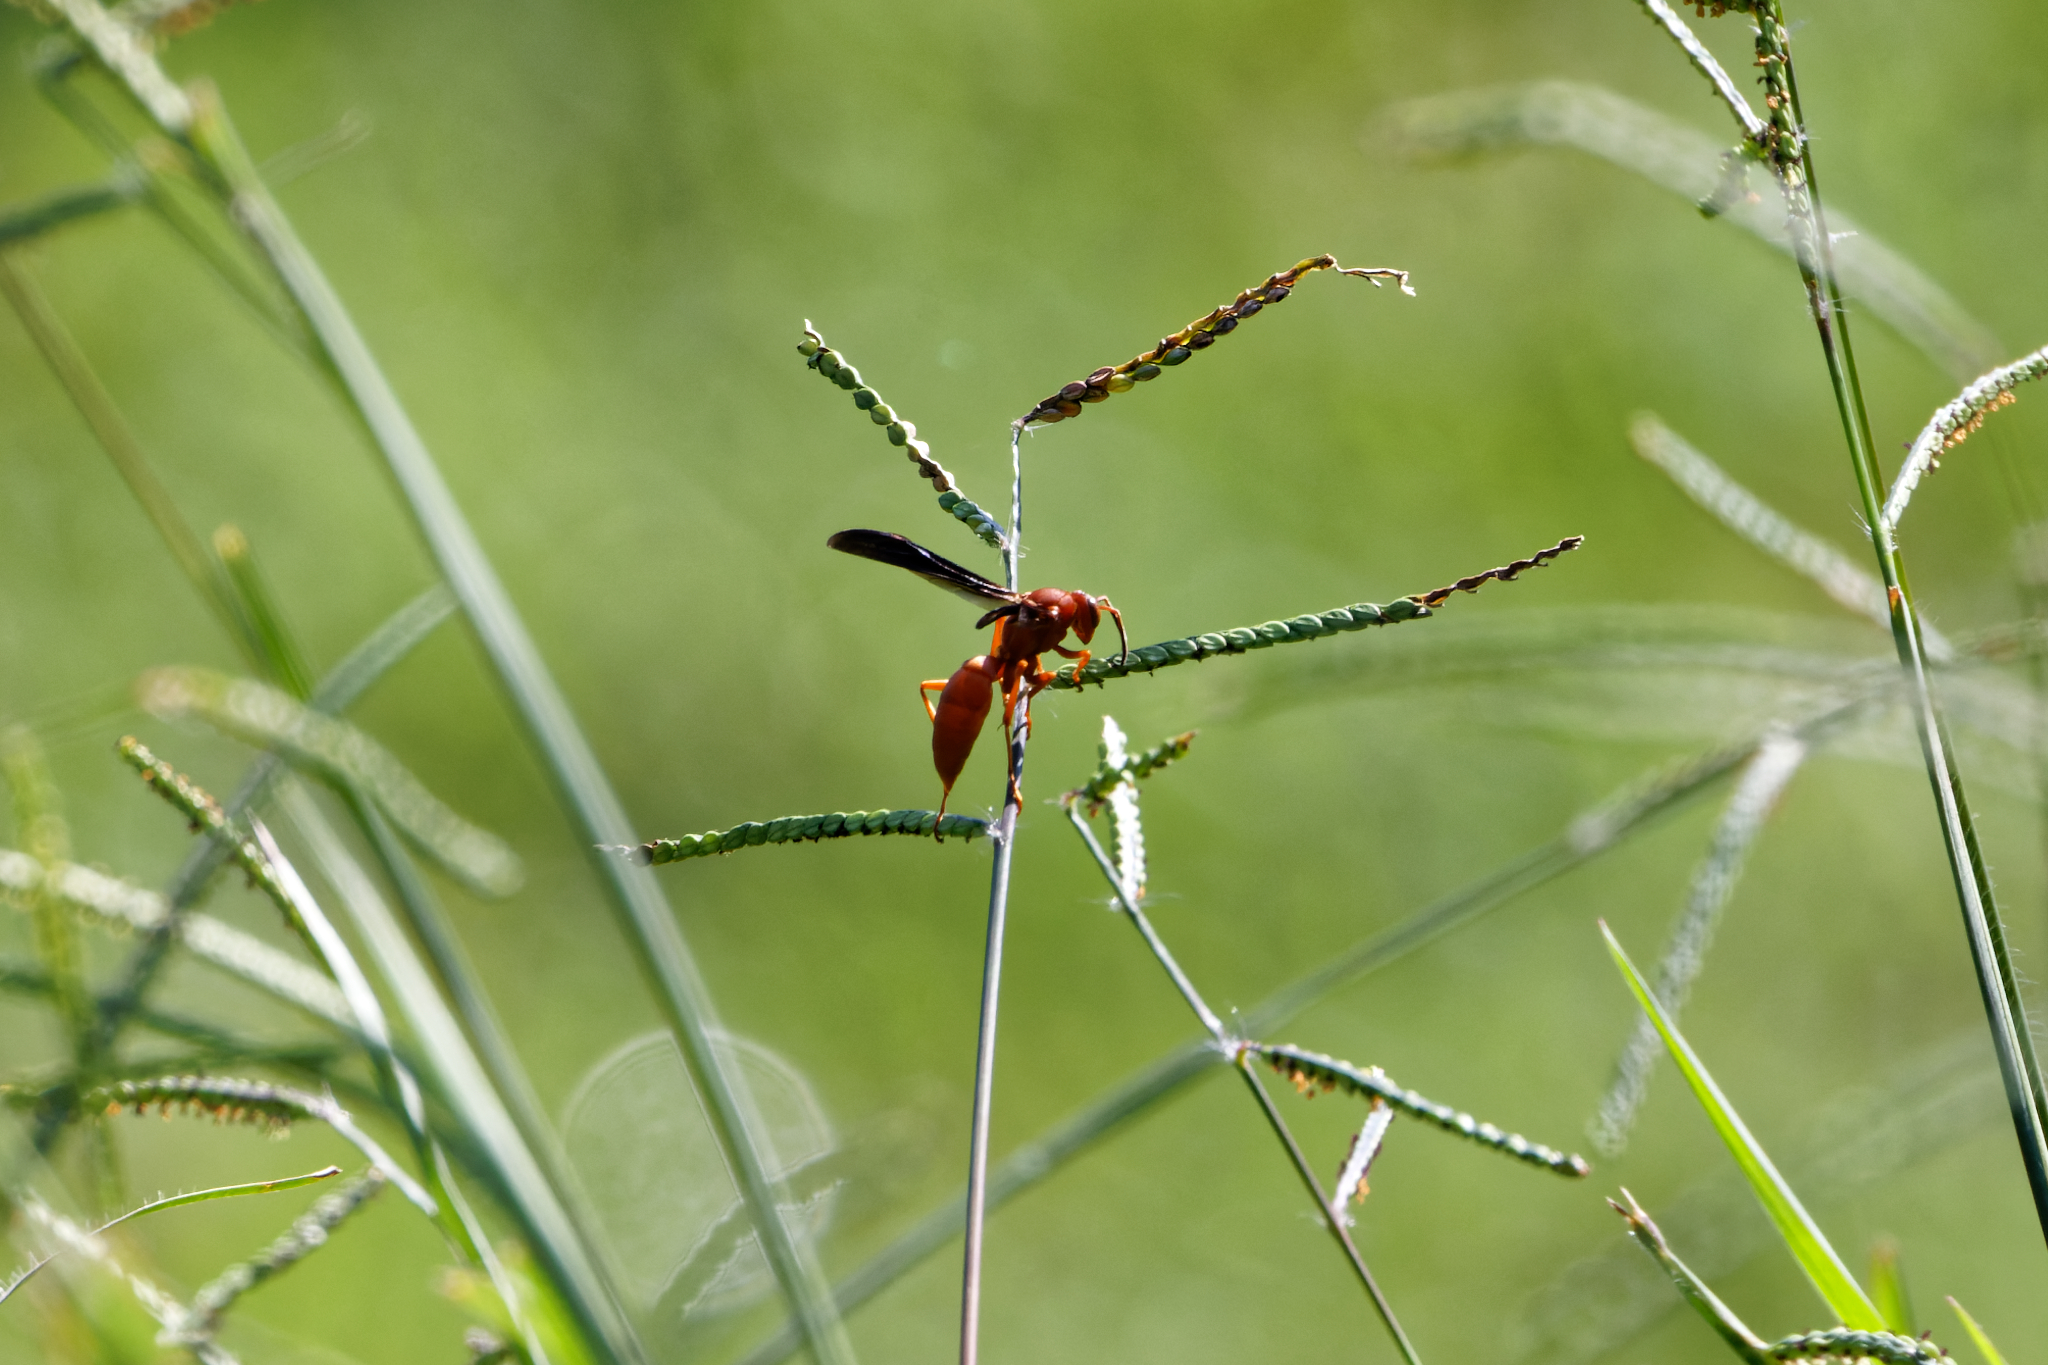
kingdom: Animalia
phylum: Arthropoda
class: Insecta
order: Hymenoptera
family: Eumenidae
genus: Polistes
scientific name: Polistes carolina
